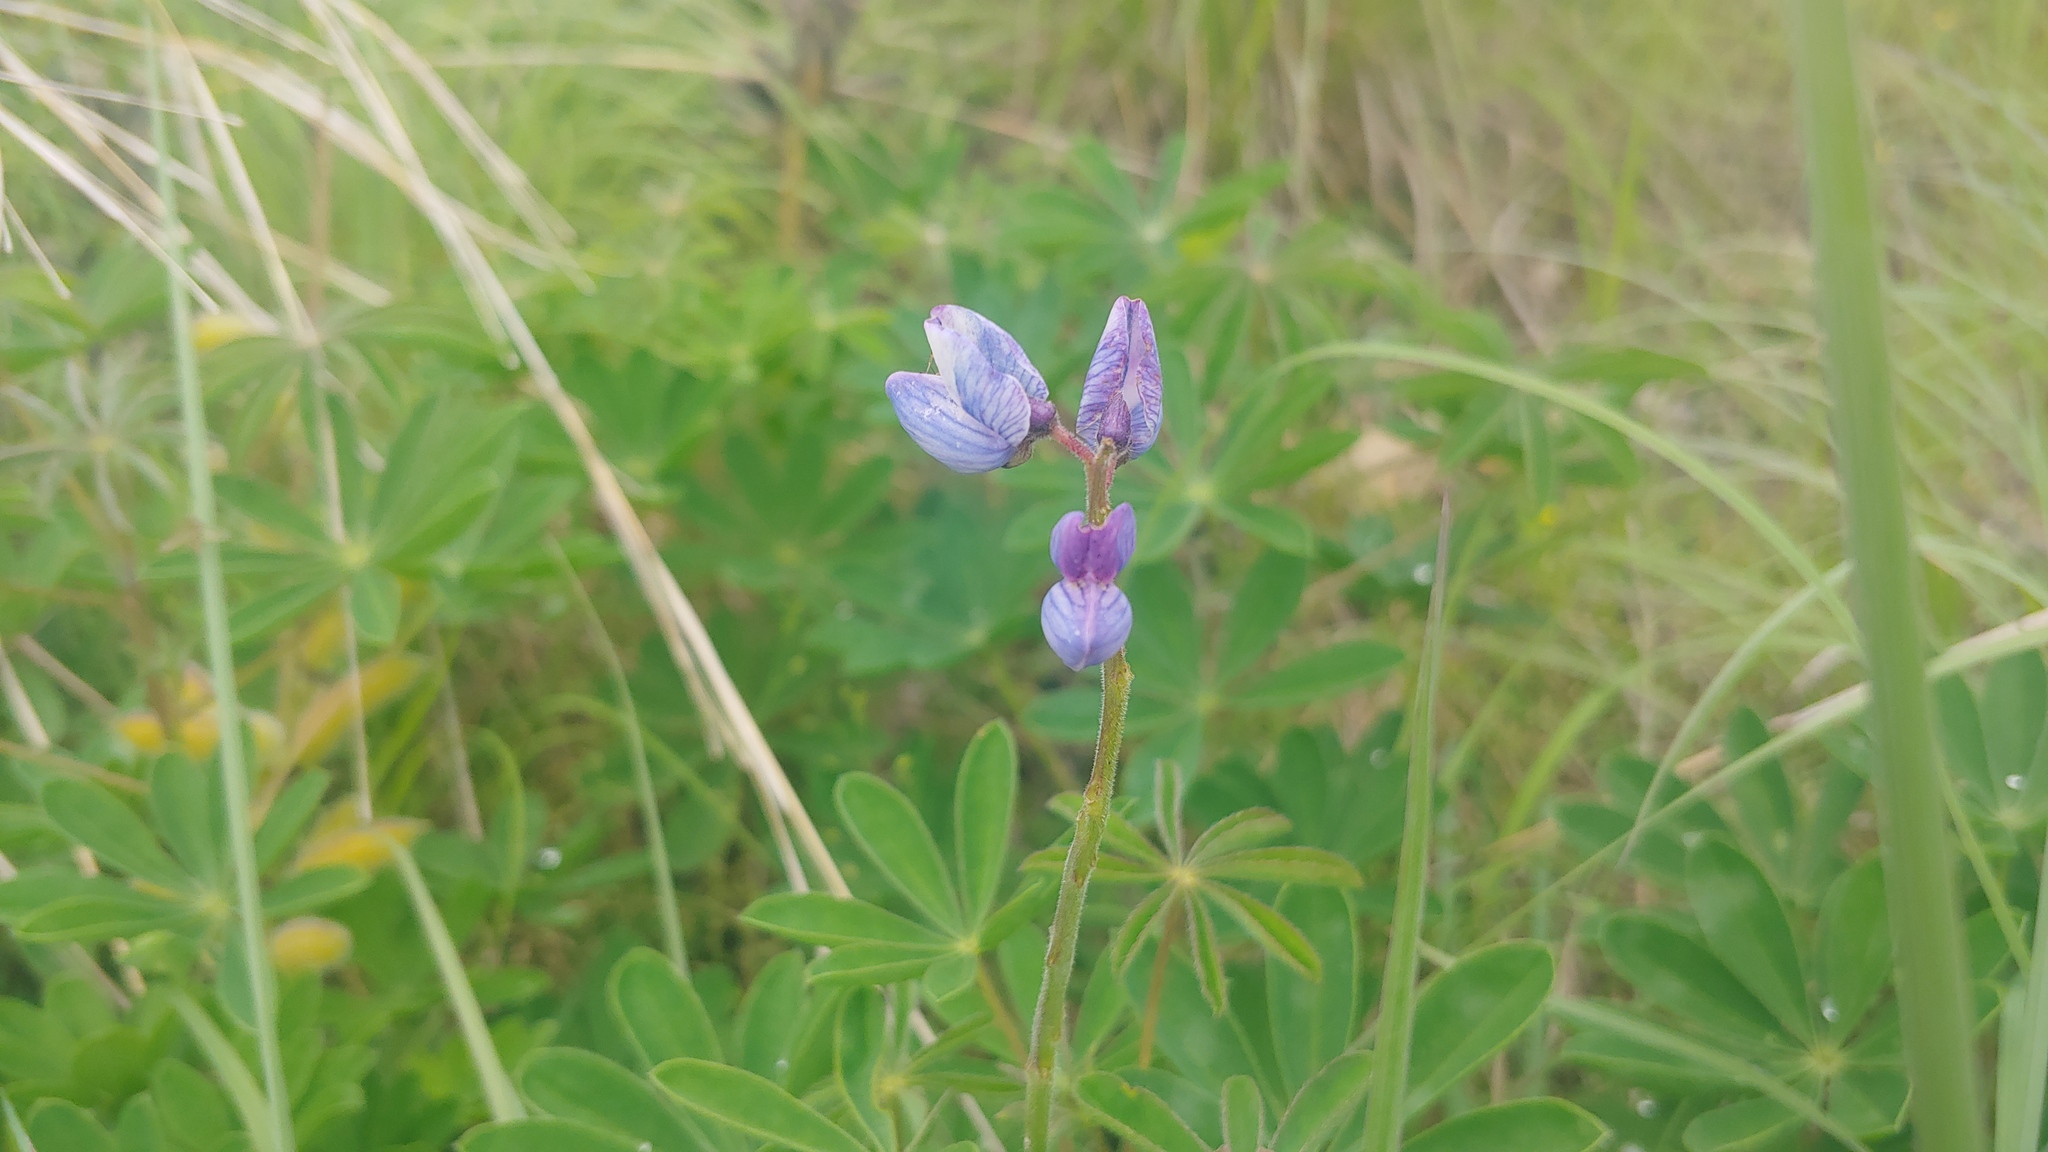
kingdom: Plantae
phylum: Tracheophyta
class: Magnoliopsida
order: Fabales
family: Fabaceae
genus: Lupinus
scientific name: Lupinus perennis
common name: Sundial lupine
